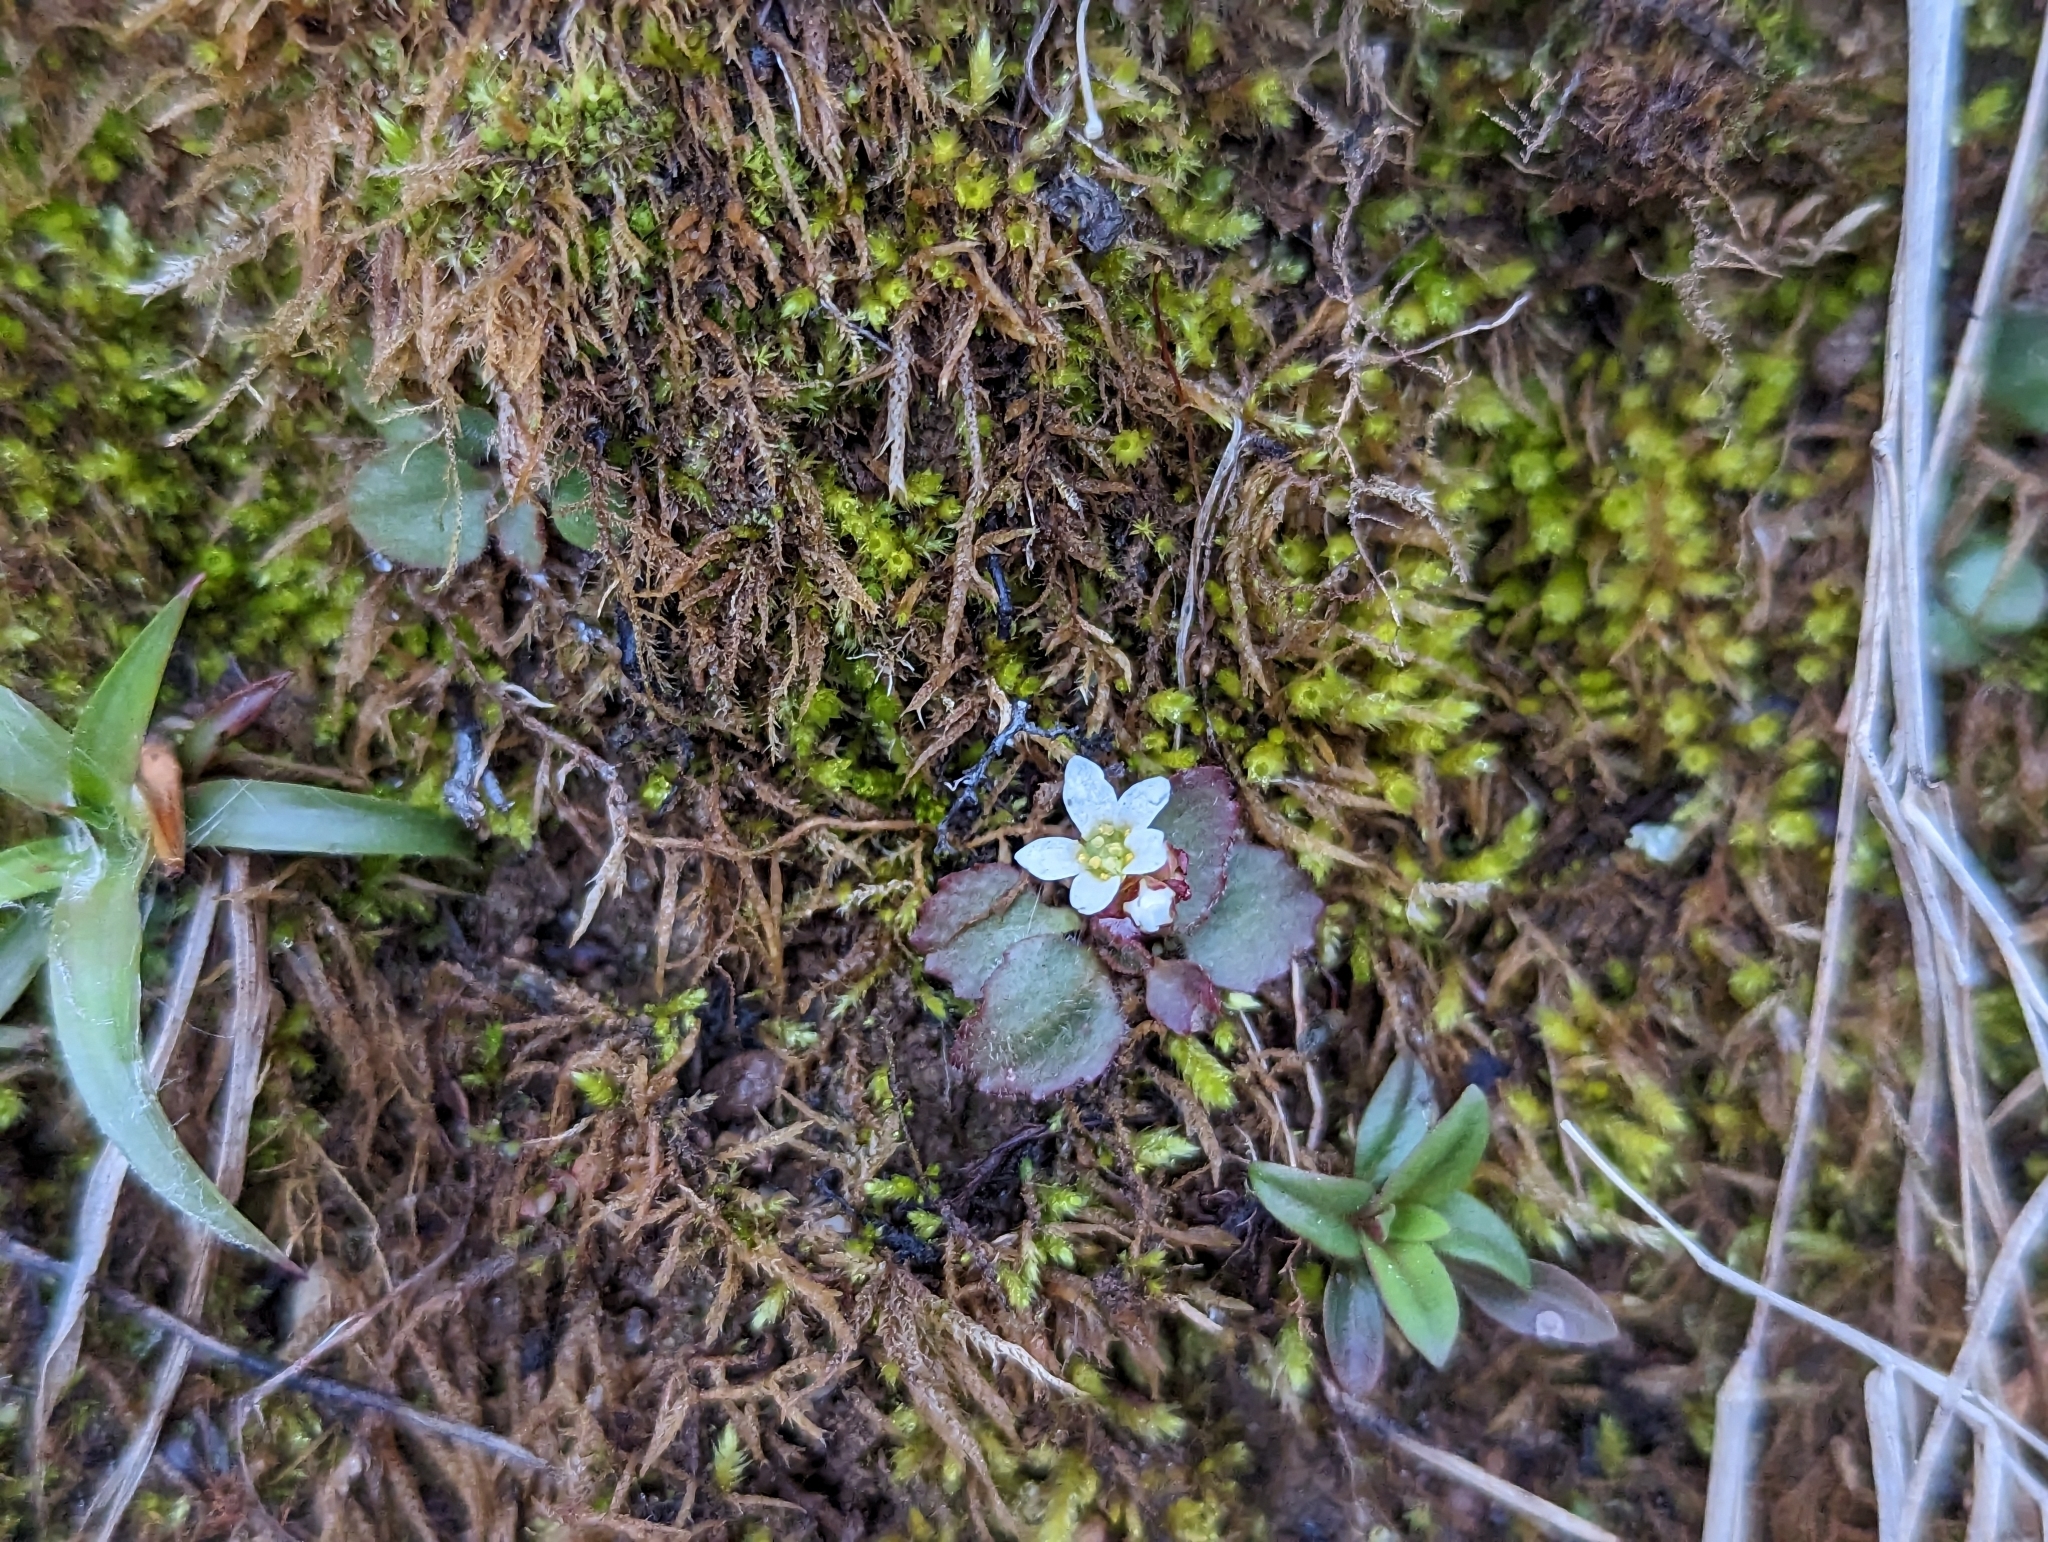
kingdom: Plantae
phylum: Tracheophyta
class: Magnoliopsida
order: Saxifragales
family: Saxifragaceae
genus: Micranthes
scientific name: Micranthes virginiensis
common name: Early saxifrage
